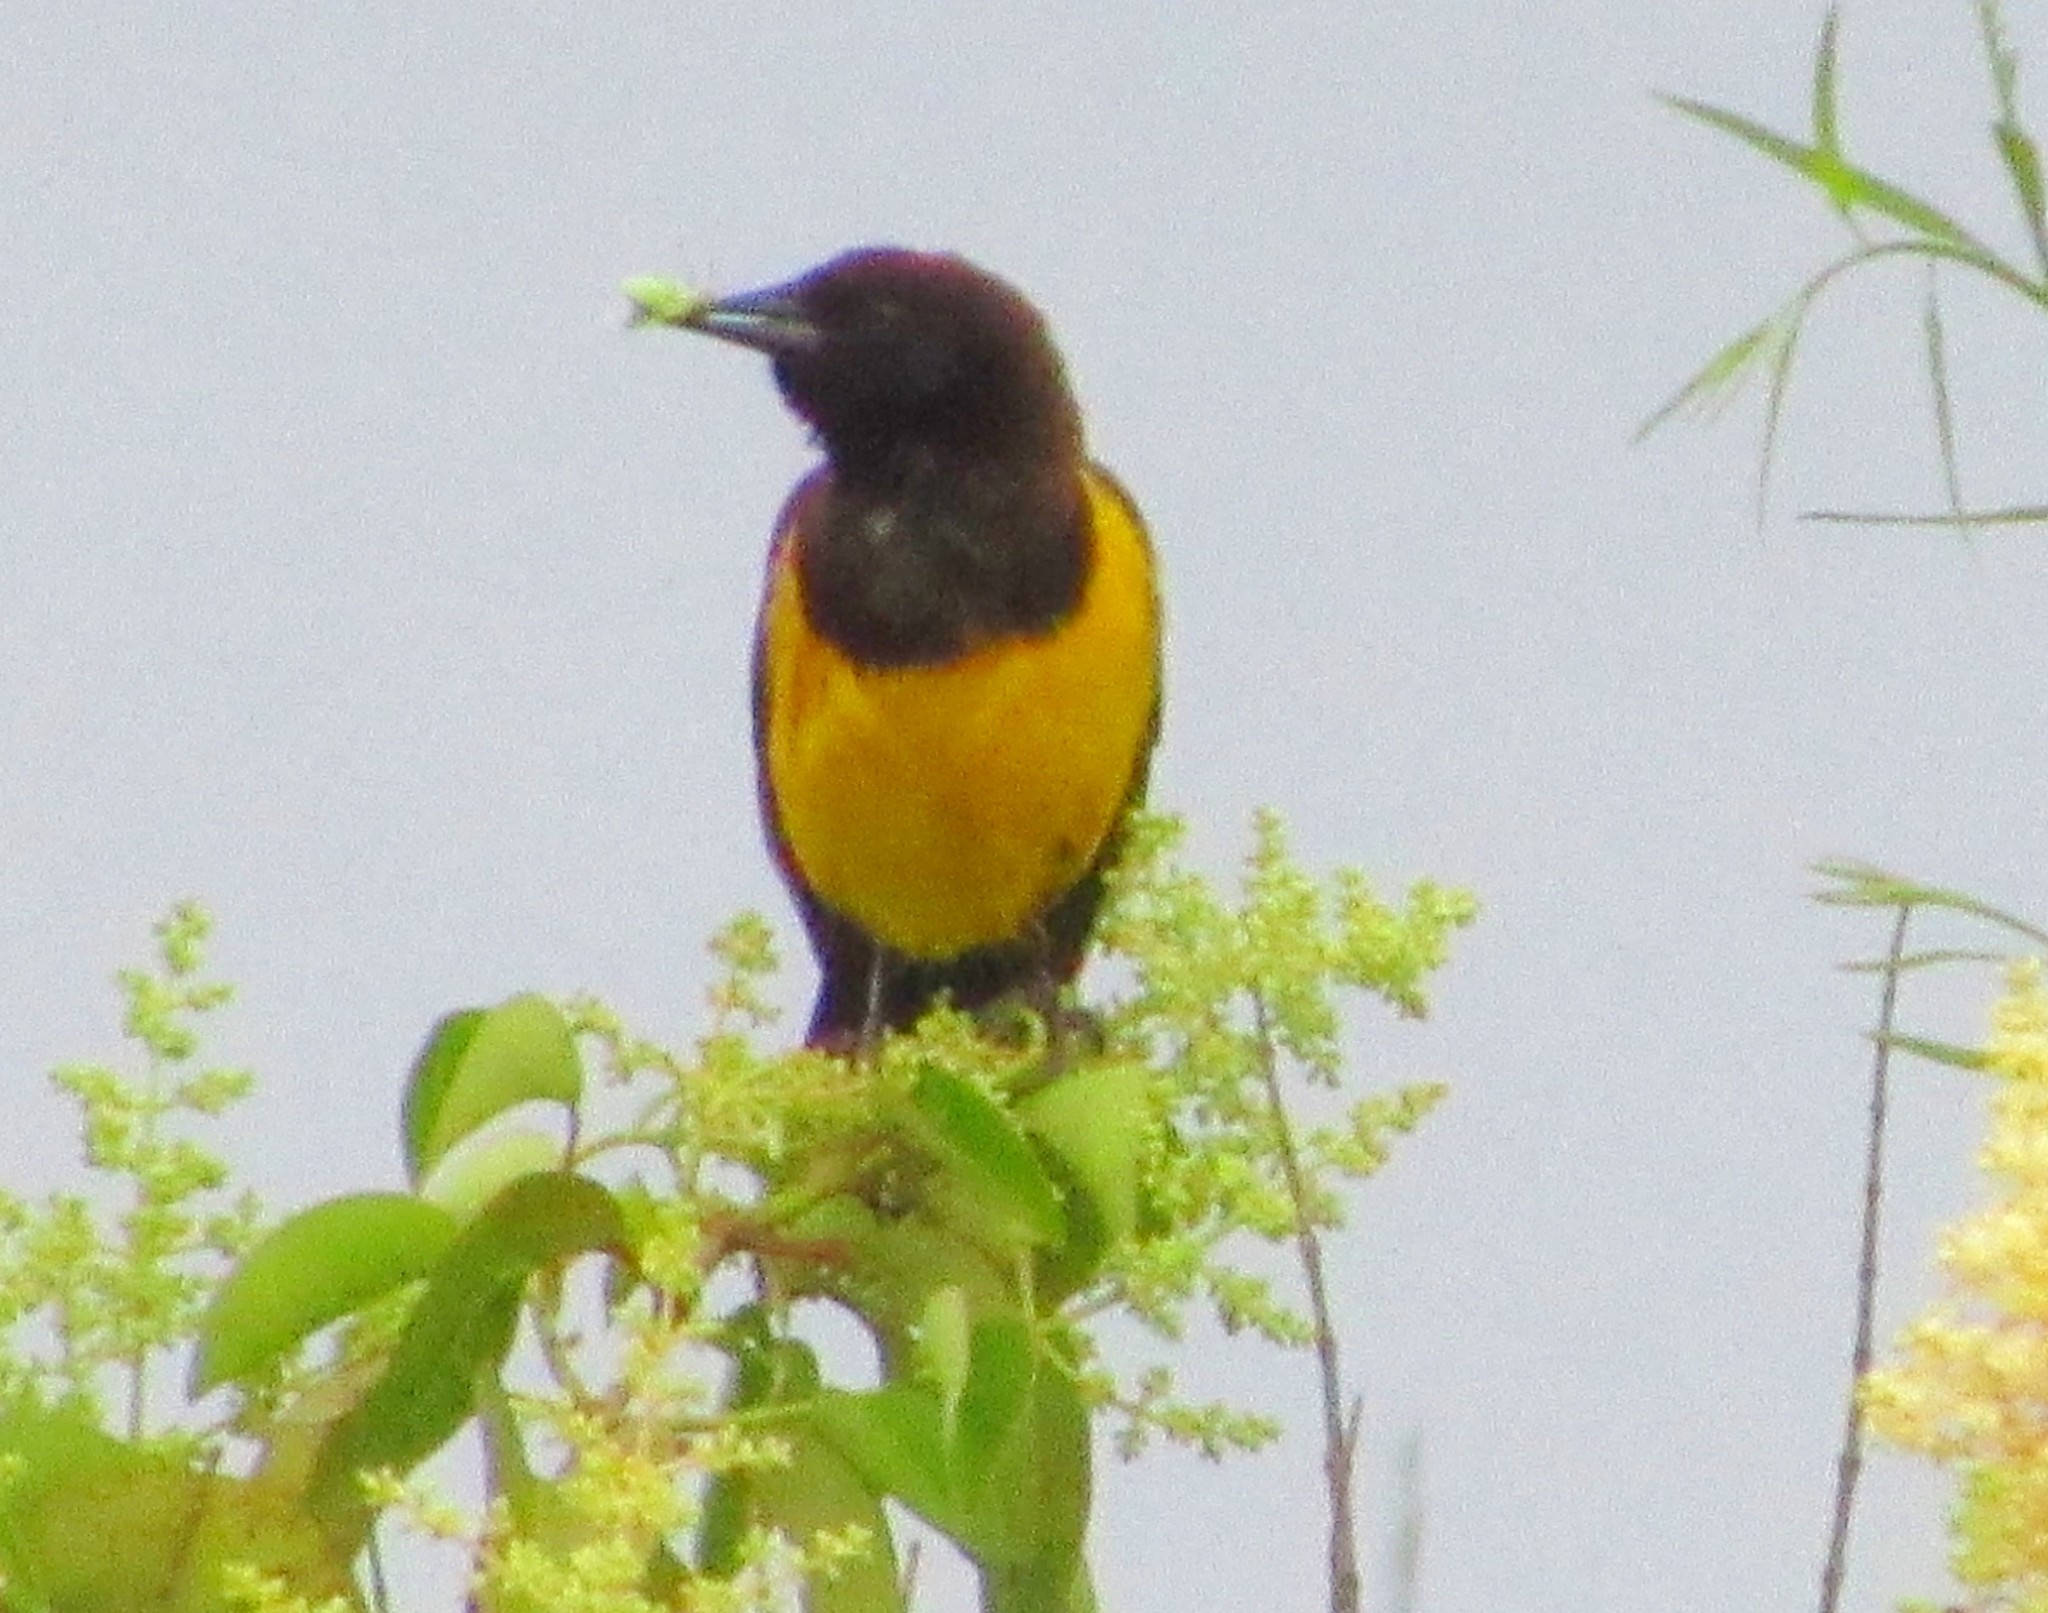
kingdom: Animalia
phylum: Chordata
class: Aves
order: Passeriformes
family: Icteridae
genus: Pseudoleistes
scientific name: Pseudoleistes guirahuro
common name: Yellow-rumped marshbird
